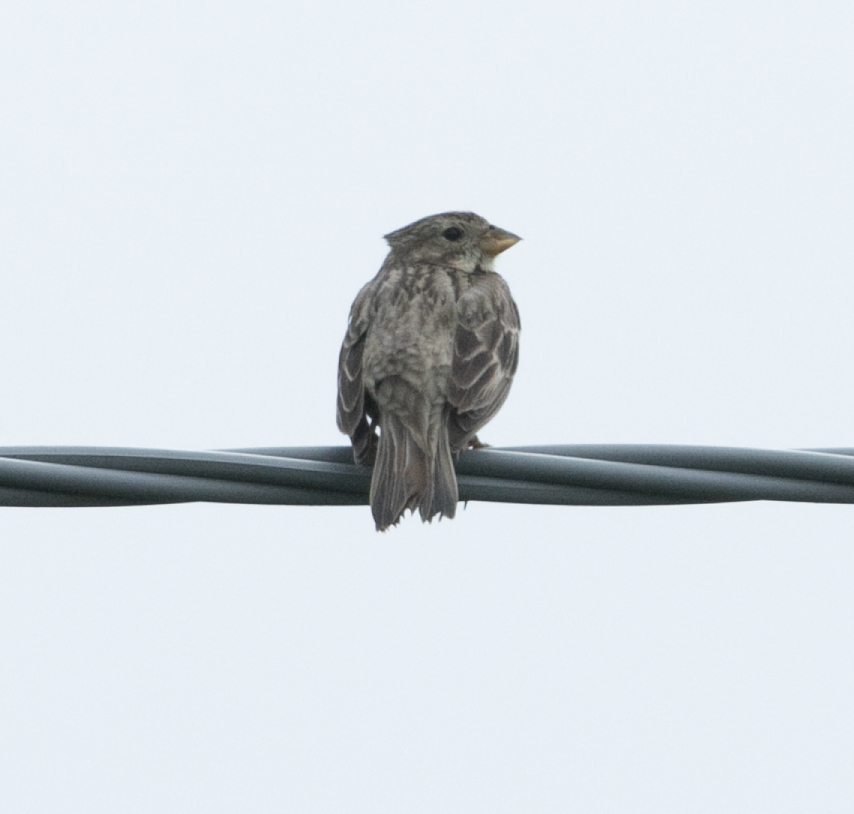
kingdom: Animalia
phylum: Chordata
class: Aves
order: Passeriformes
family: Emberizidae
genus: Emberiza
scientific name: Emberiza calandra
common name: Corn bunting
